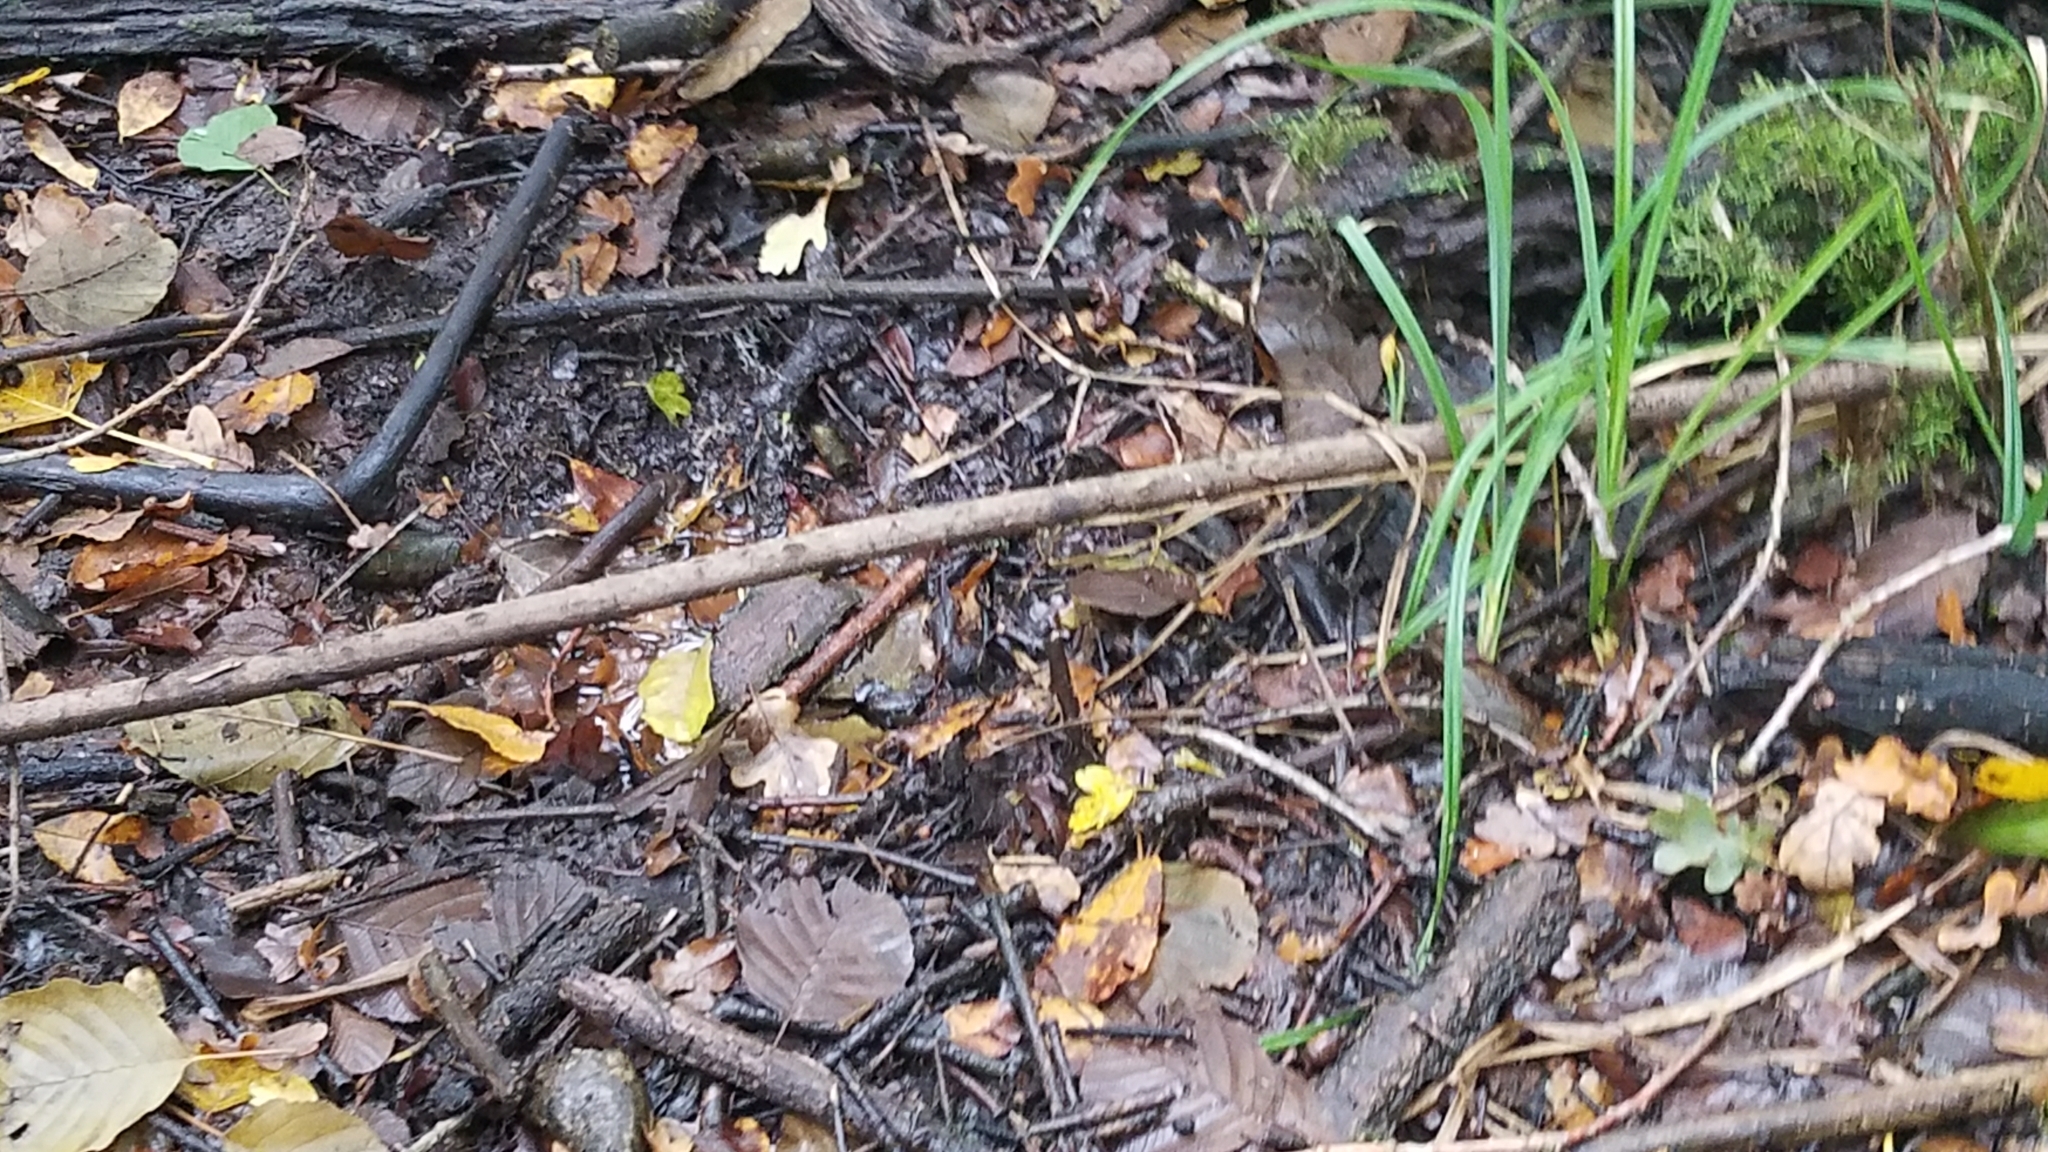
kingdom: Animalia
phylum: Chordata
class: Amphibia
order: Anura
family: Ranidae
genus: Rana
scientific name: Rana temporaria
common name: Common frog
